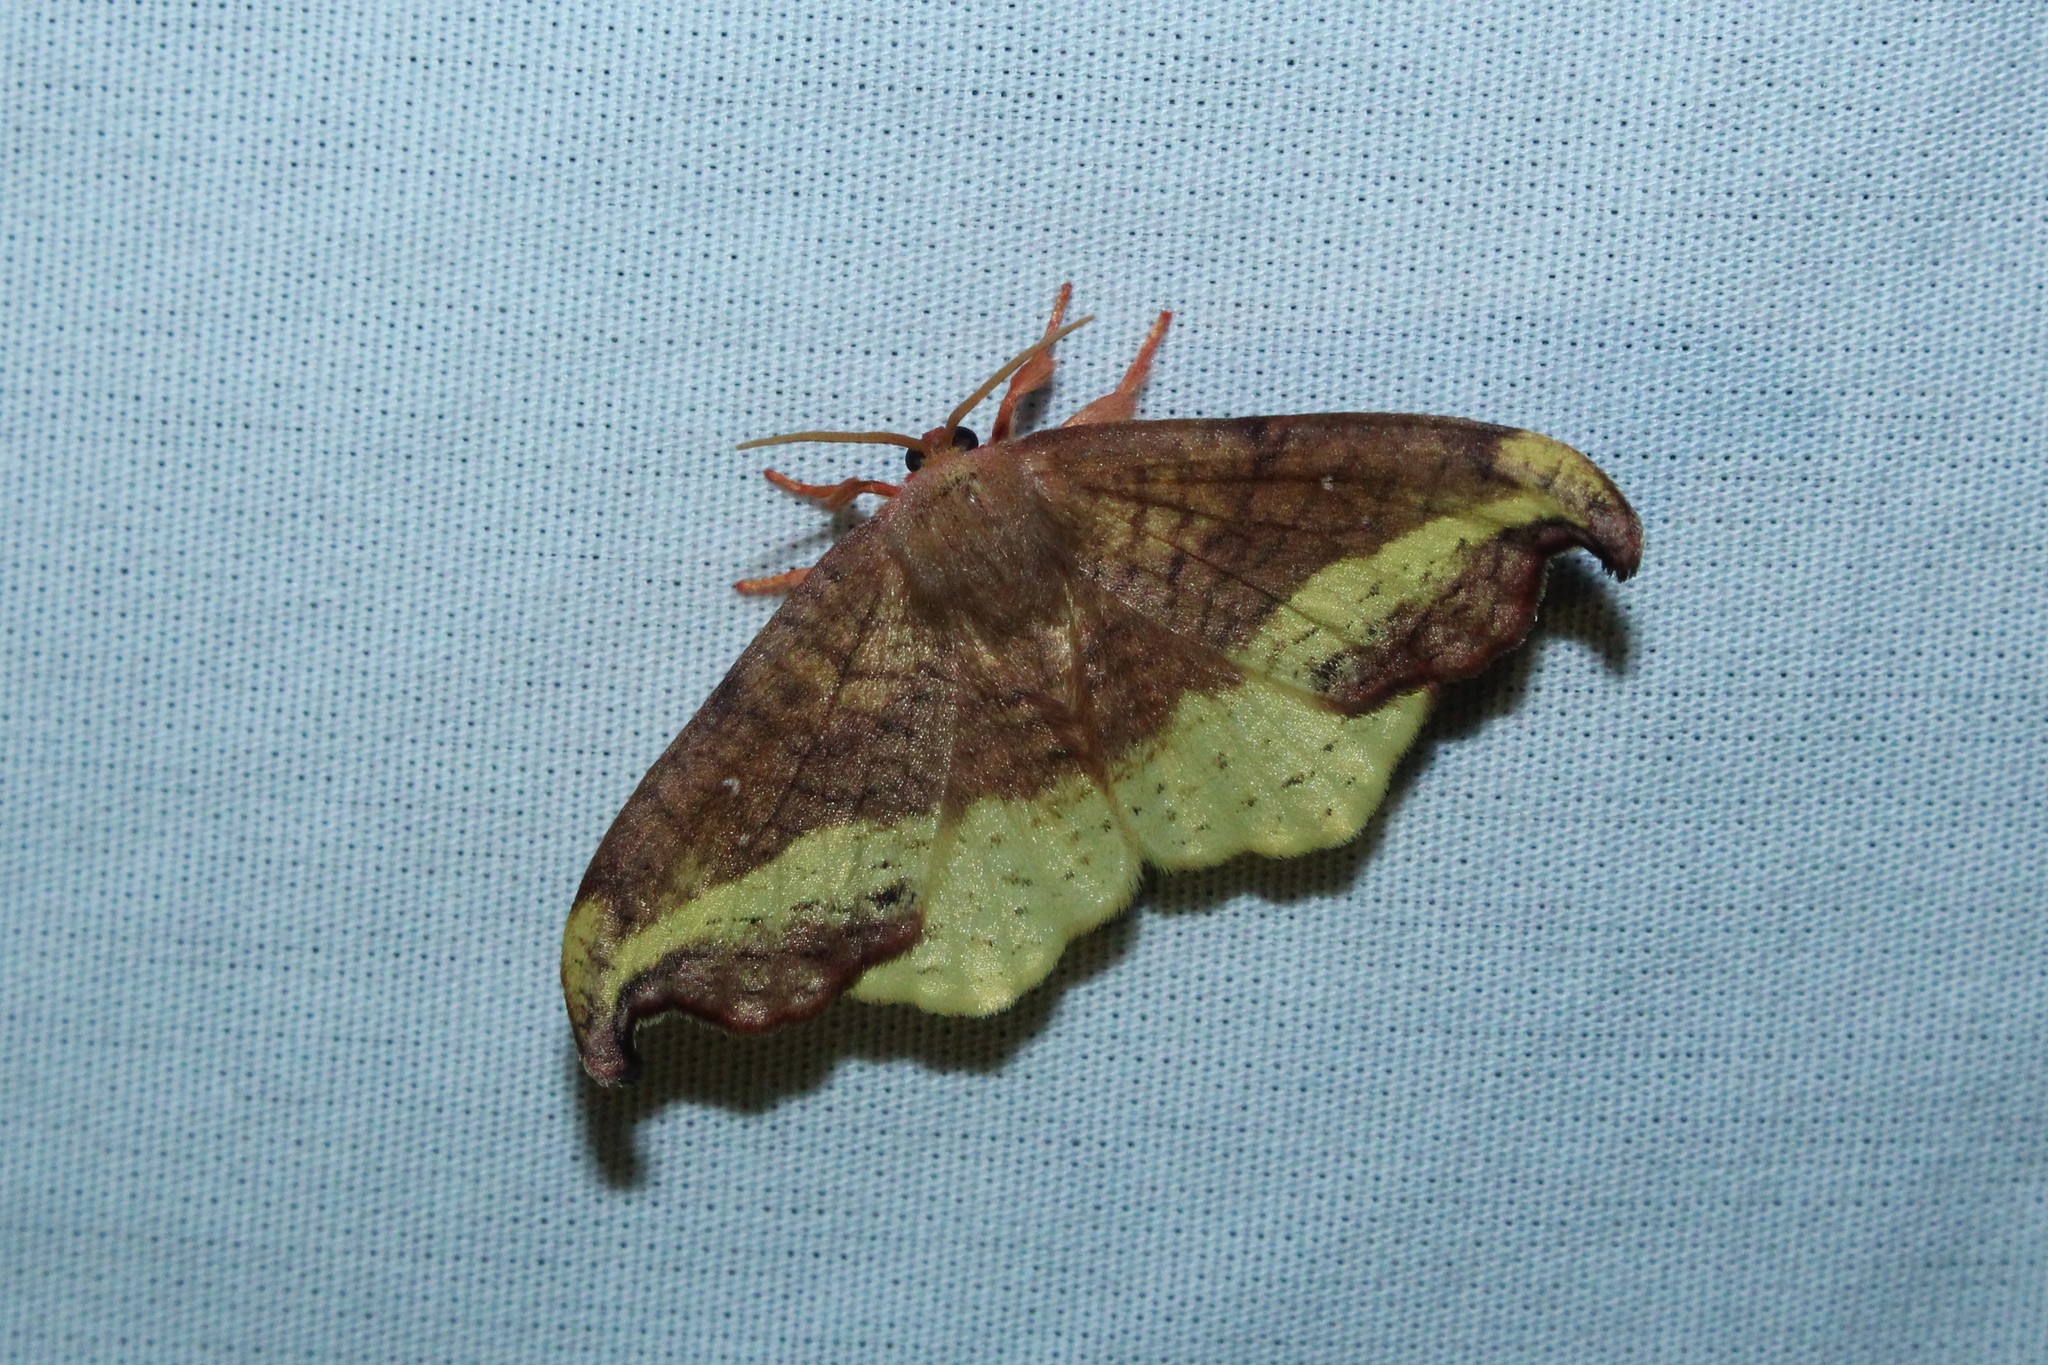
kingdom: Animalia
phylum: Arthropoda
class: Insecta
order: Lepidoptera
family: Drepanidae
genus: Oreta
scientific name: Oreta rosea
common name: Rose hooktip
